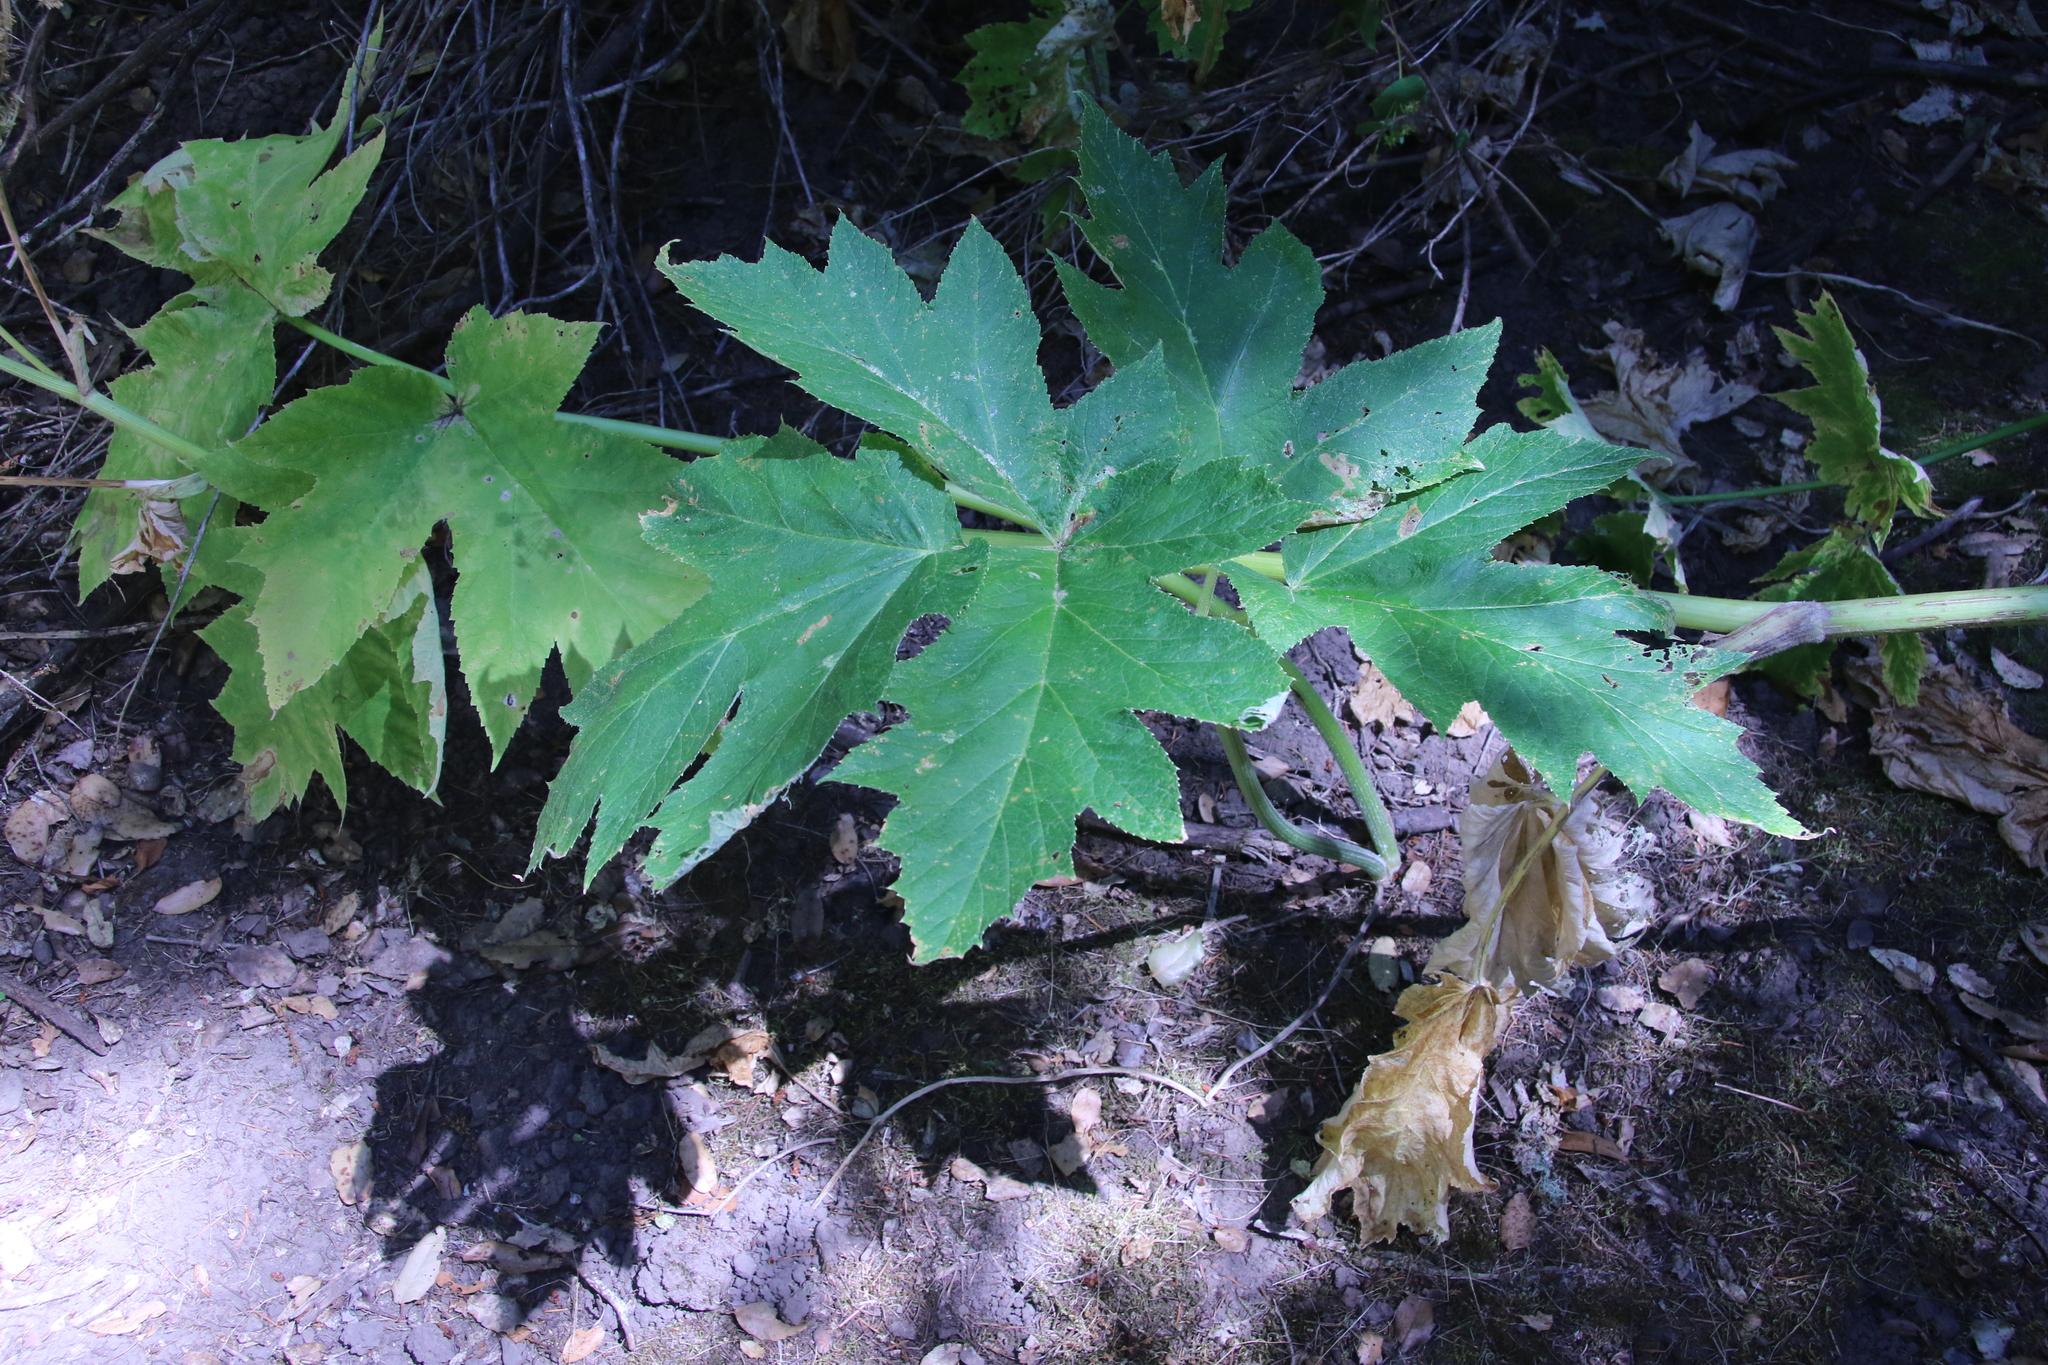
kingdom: Plantae
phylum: Tracheophyta
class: Magnoliopsida
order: Apiales
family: Apiaceae
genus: Heracleum
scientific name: Heracleum maximum
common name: American cow parsnip
